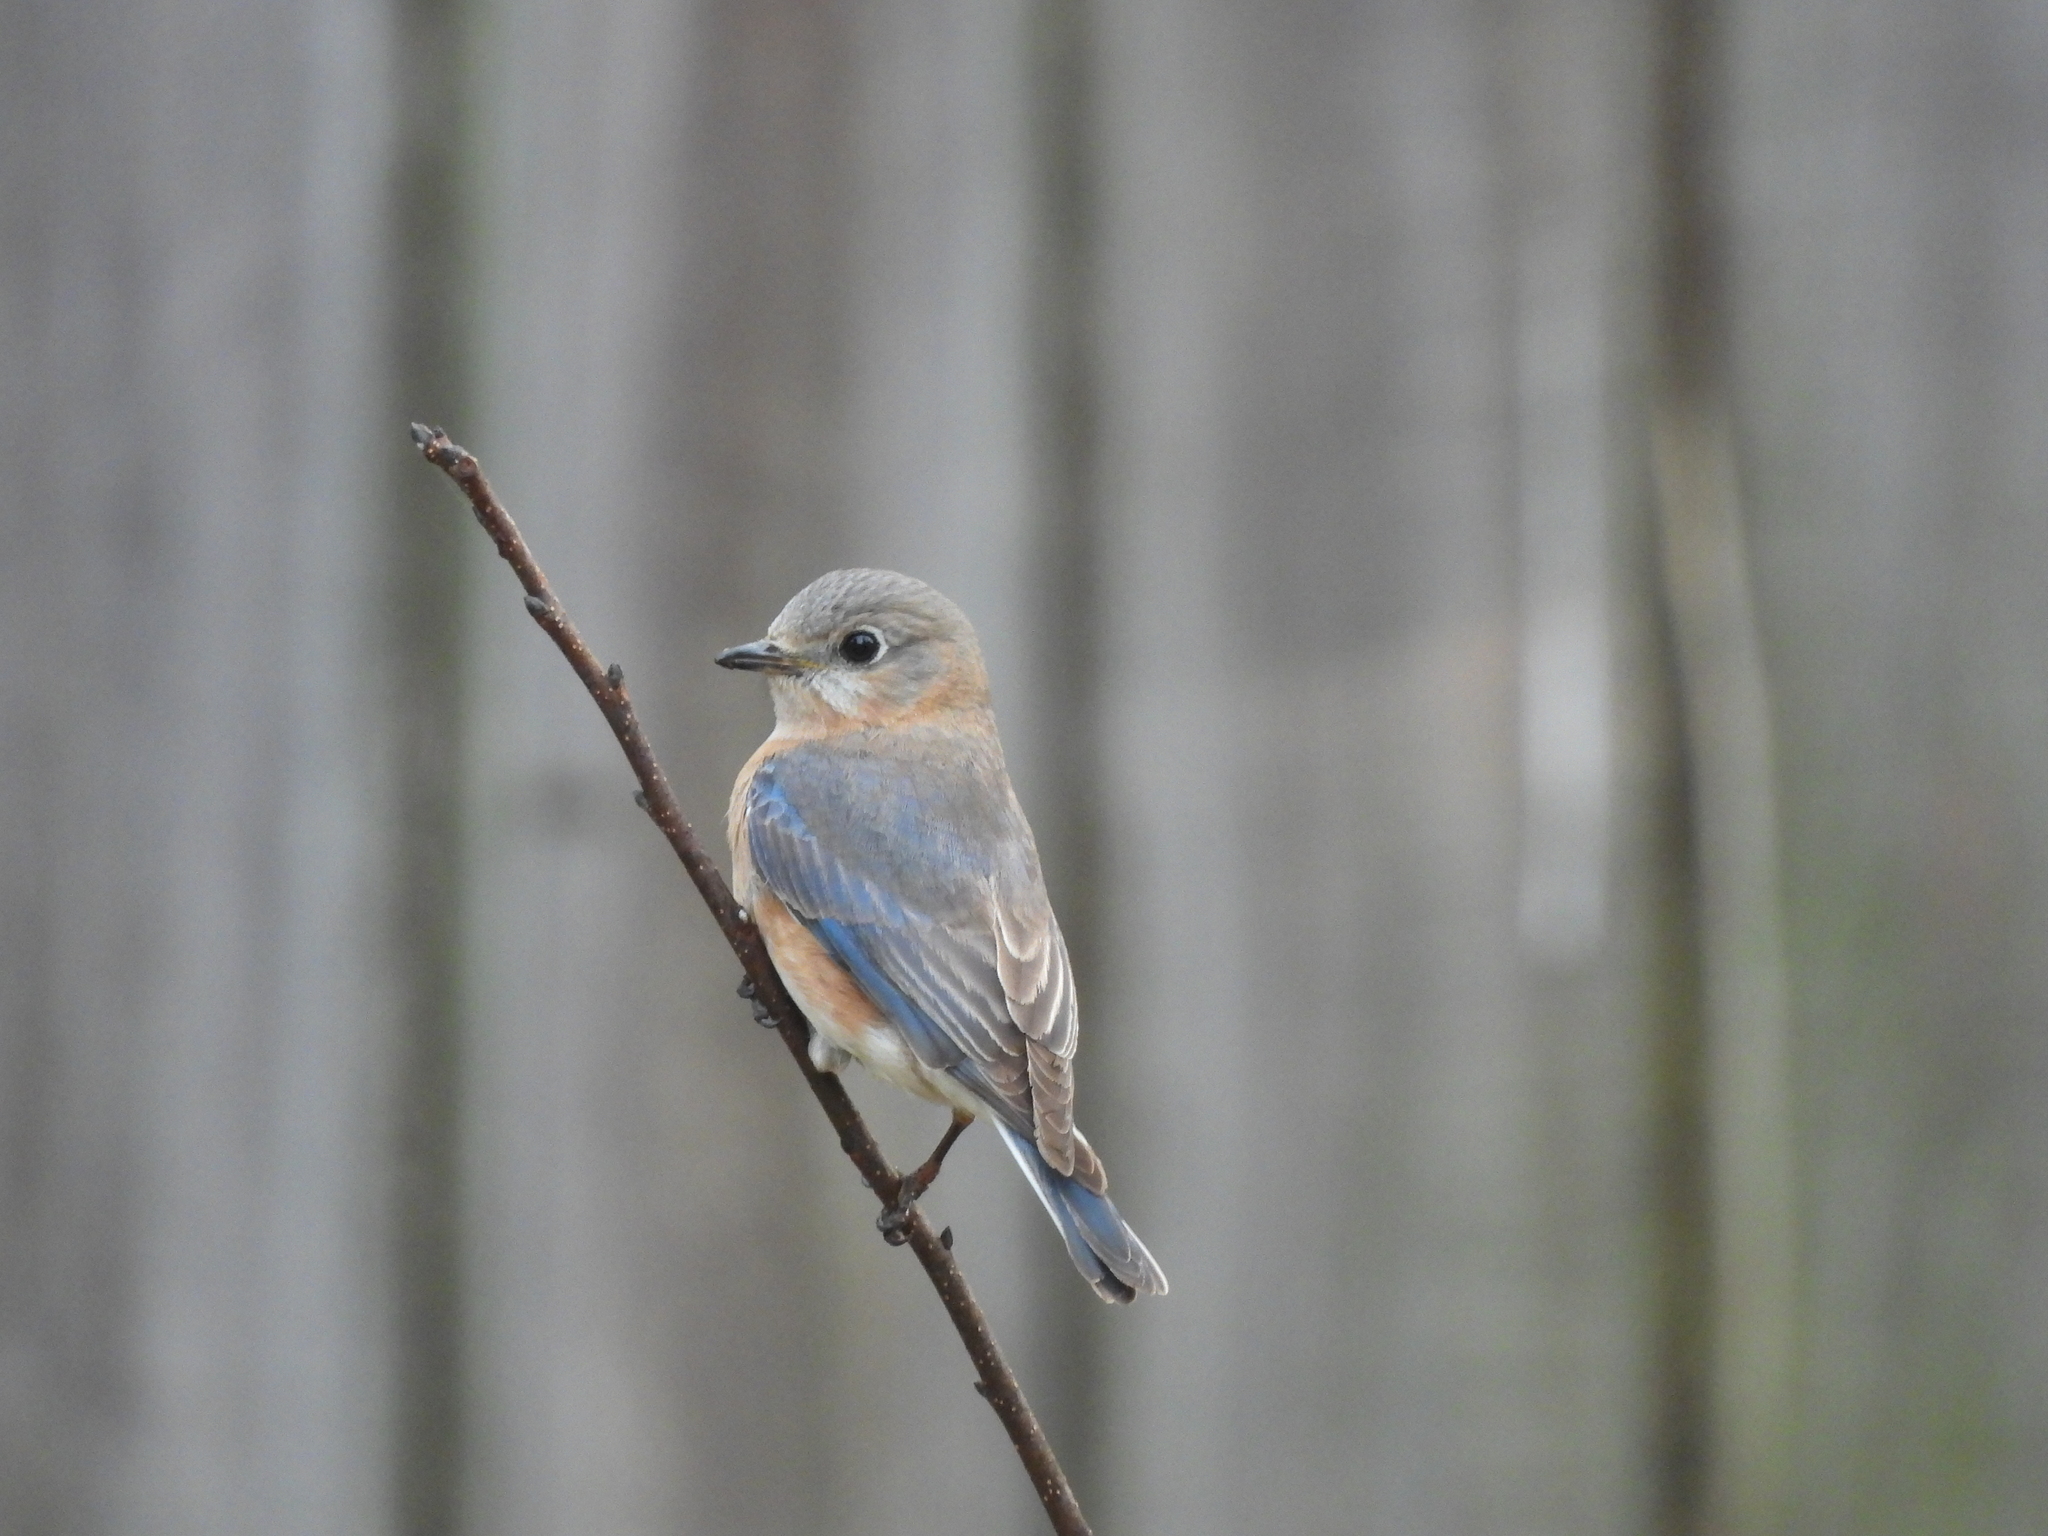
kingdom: Animalia
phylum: Chordata
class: Aves
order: Passeriformes
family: Turdidae
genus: Sialia
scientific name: Sialia sialis
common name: Eastern bluebird
